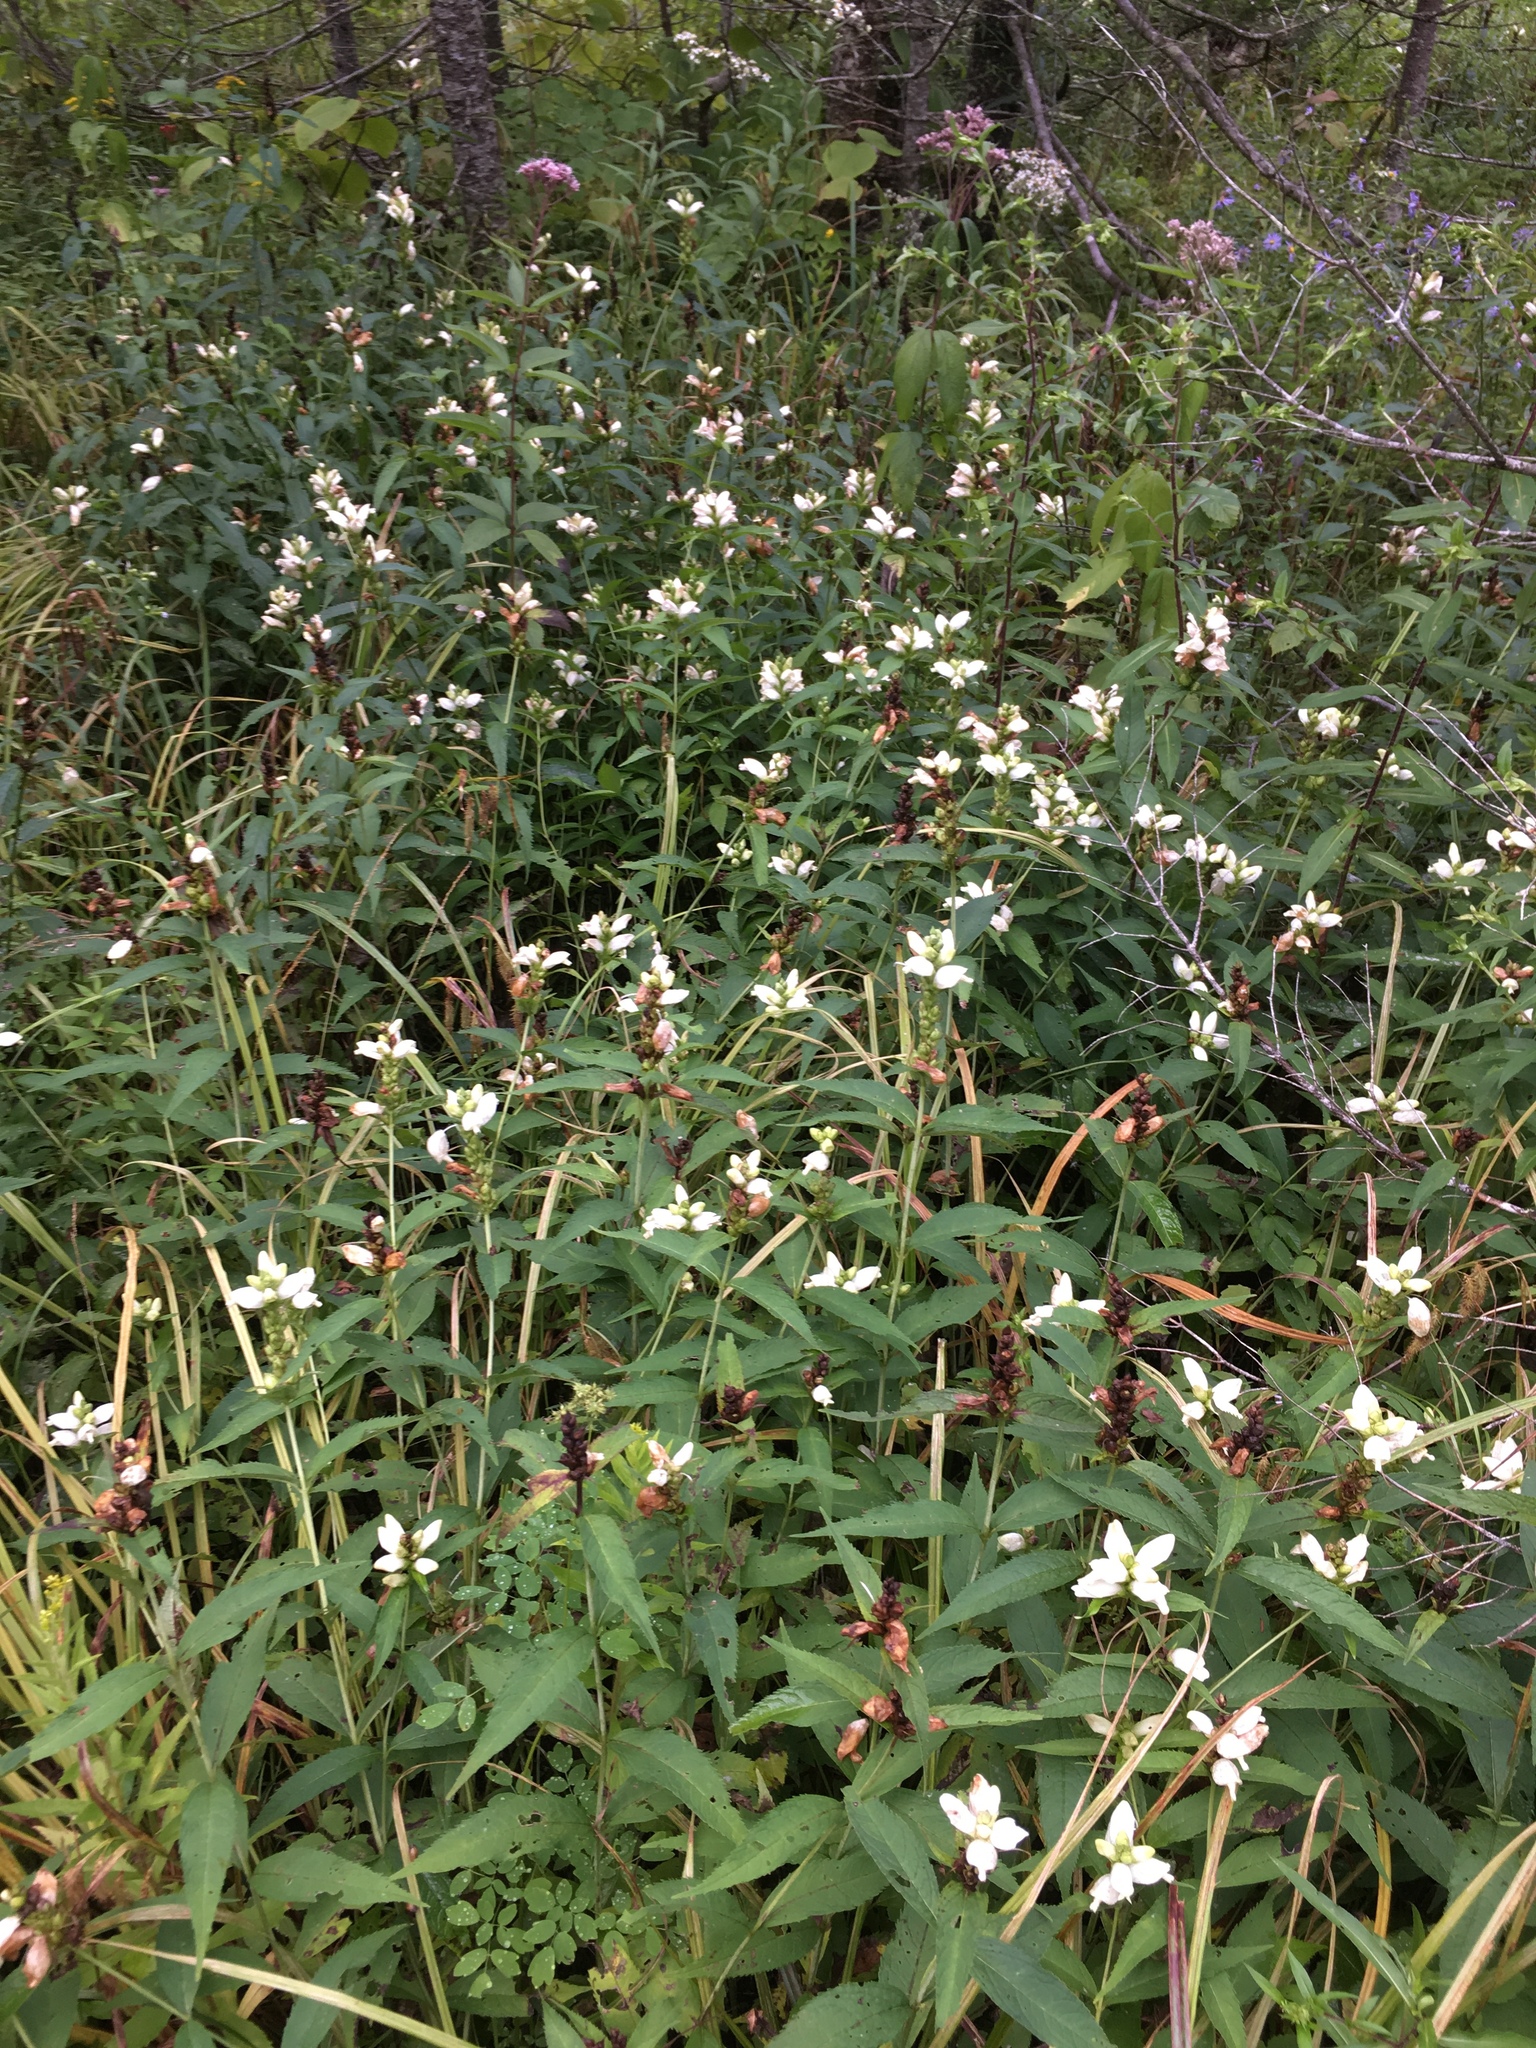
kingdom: Plantae
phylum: Tracheophyta
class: Magnoliopsida
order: Lamiales
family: Plantaginaceae
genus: Chelone
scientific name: Chelone glabra
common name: Snakehead
